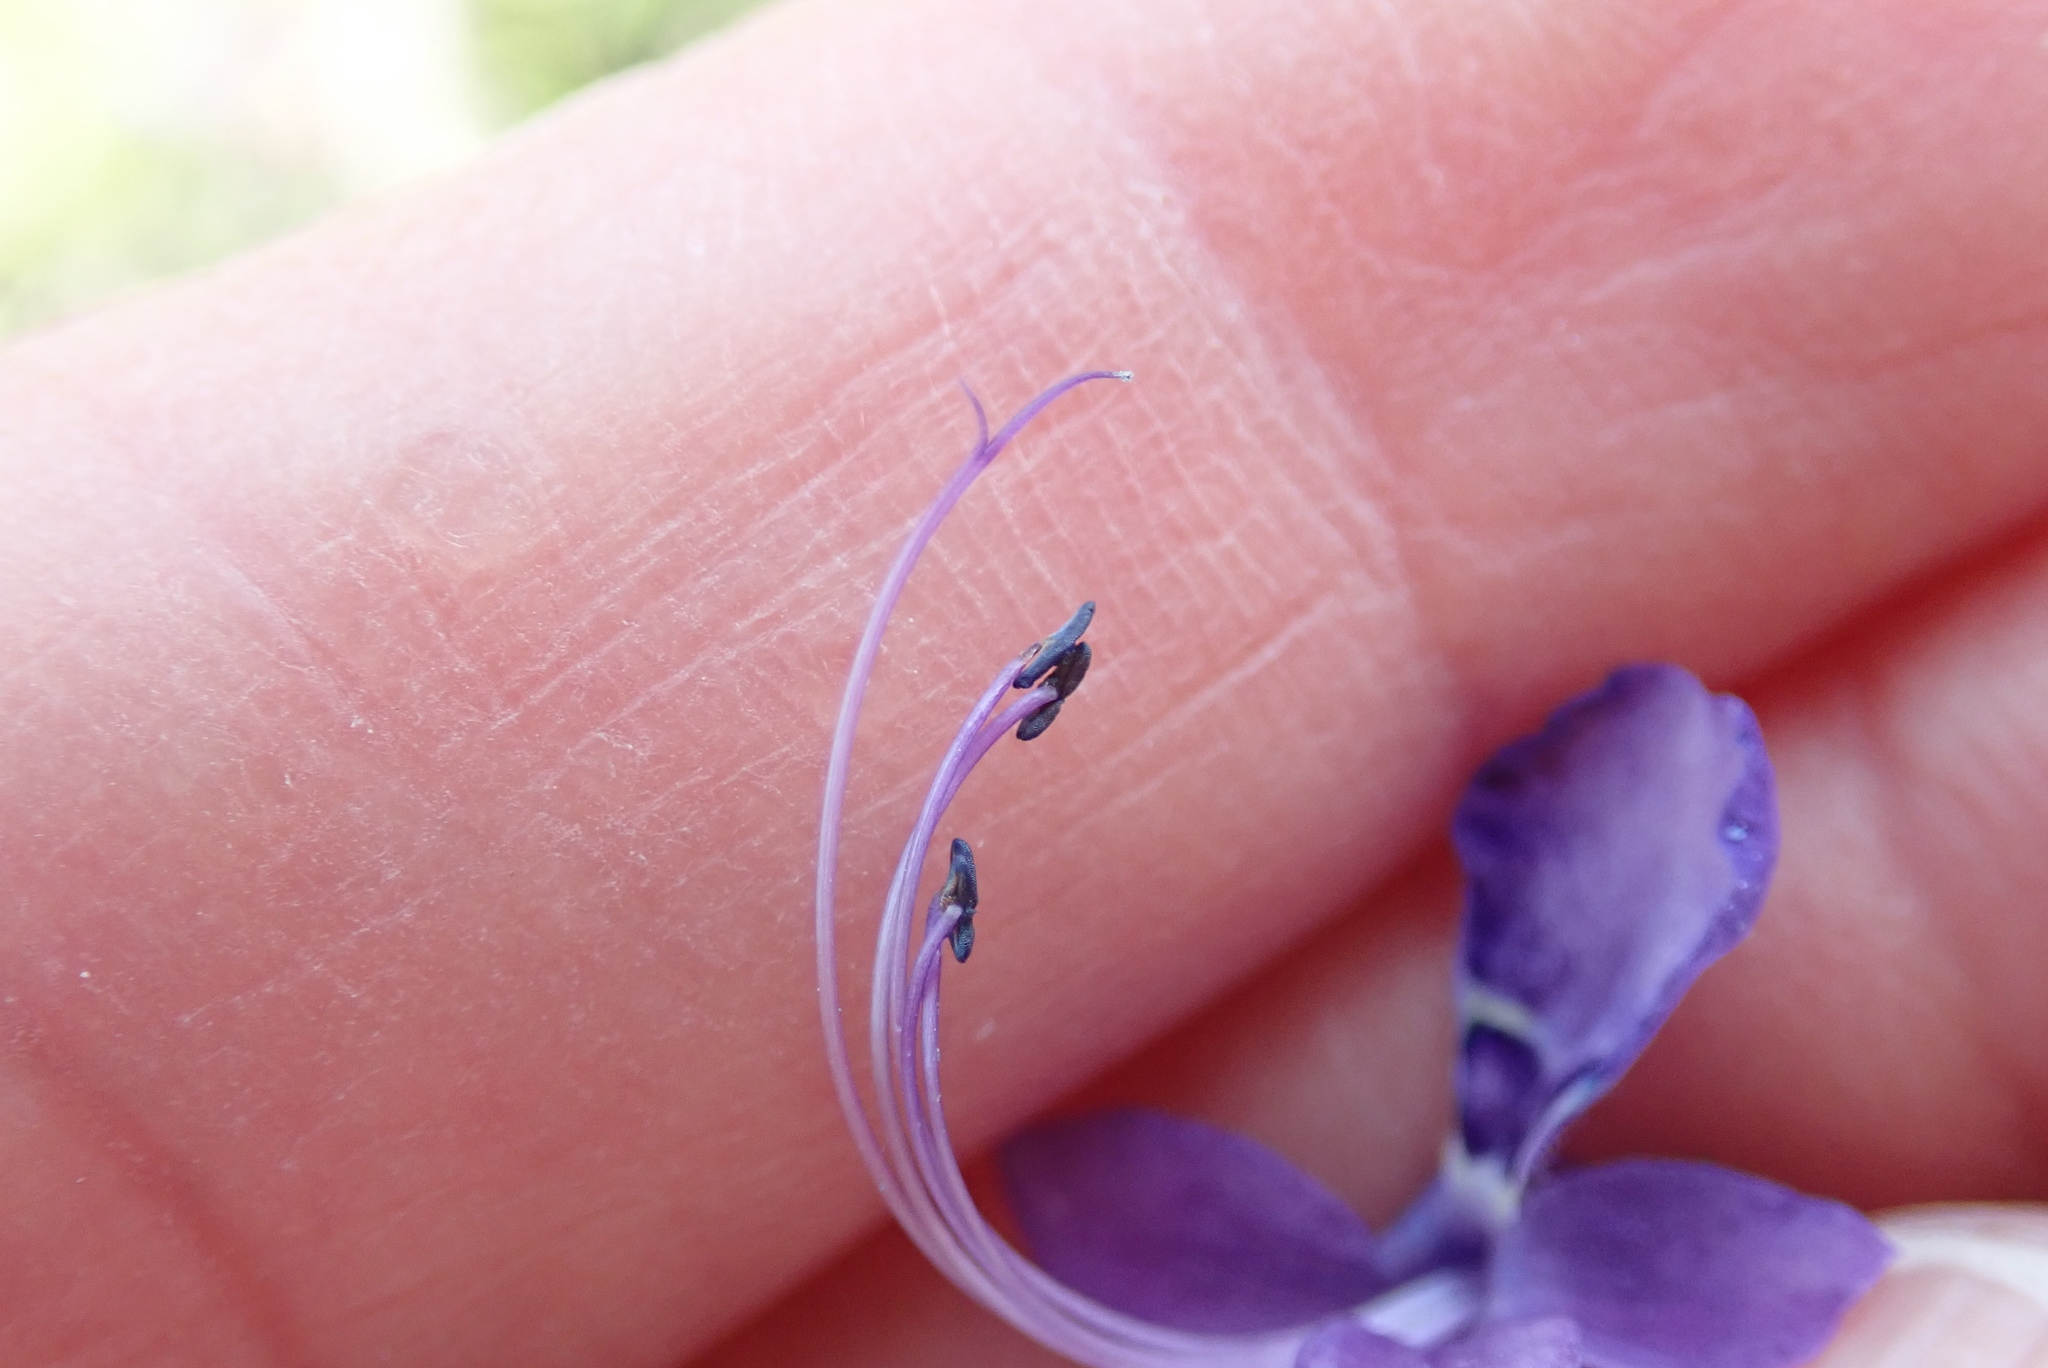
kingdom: Plantae
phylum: Tracheophyta
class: Magnoliopsida
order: Lamiales
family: Lamiaceae
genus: Trichostema
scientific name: Trichostema parishii
